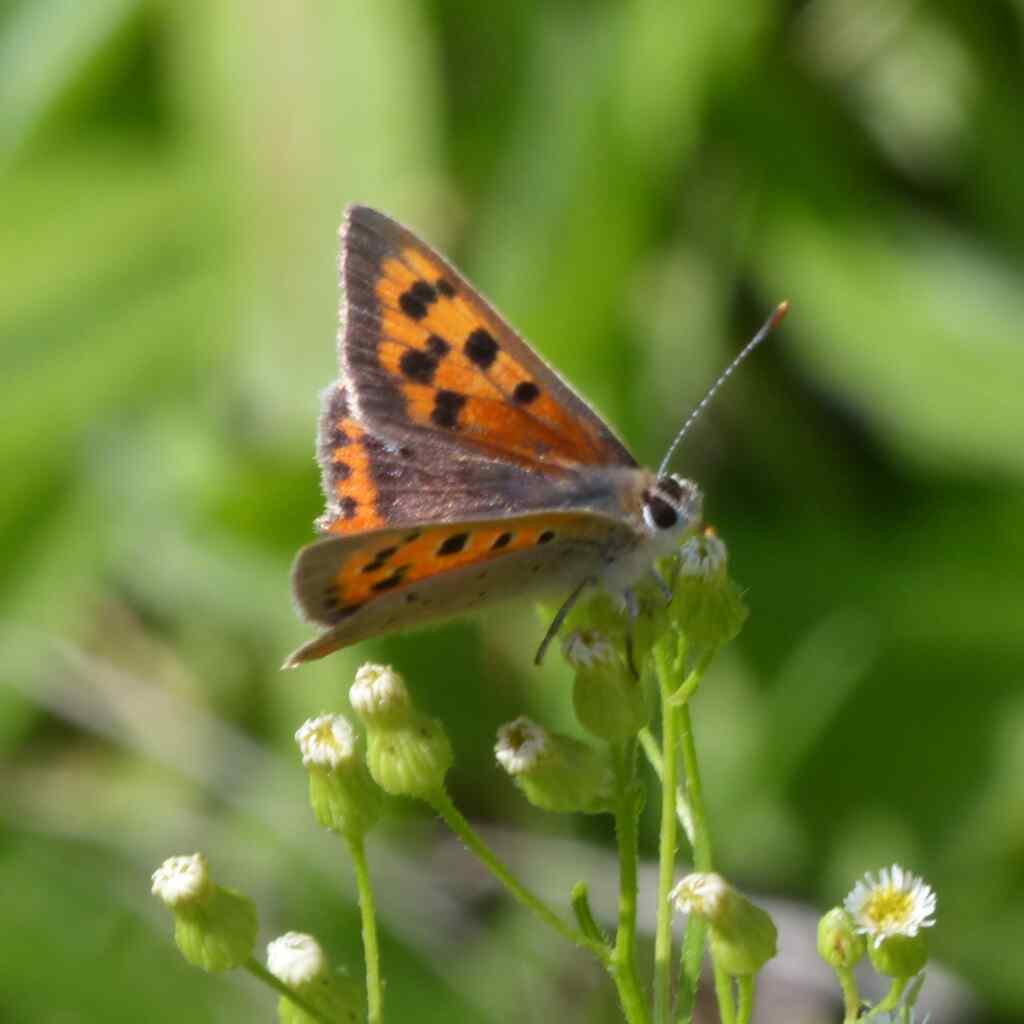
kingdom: Animalia
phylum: Arthropoda
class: Insecta
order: Lepidoptera
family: Lycaenidae
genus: Lycaena
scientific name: Lycaena phlaeas
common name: Small copper
